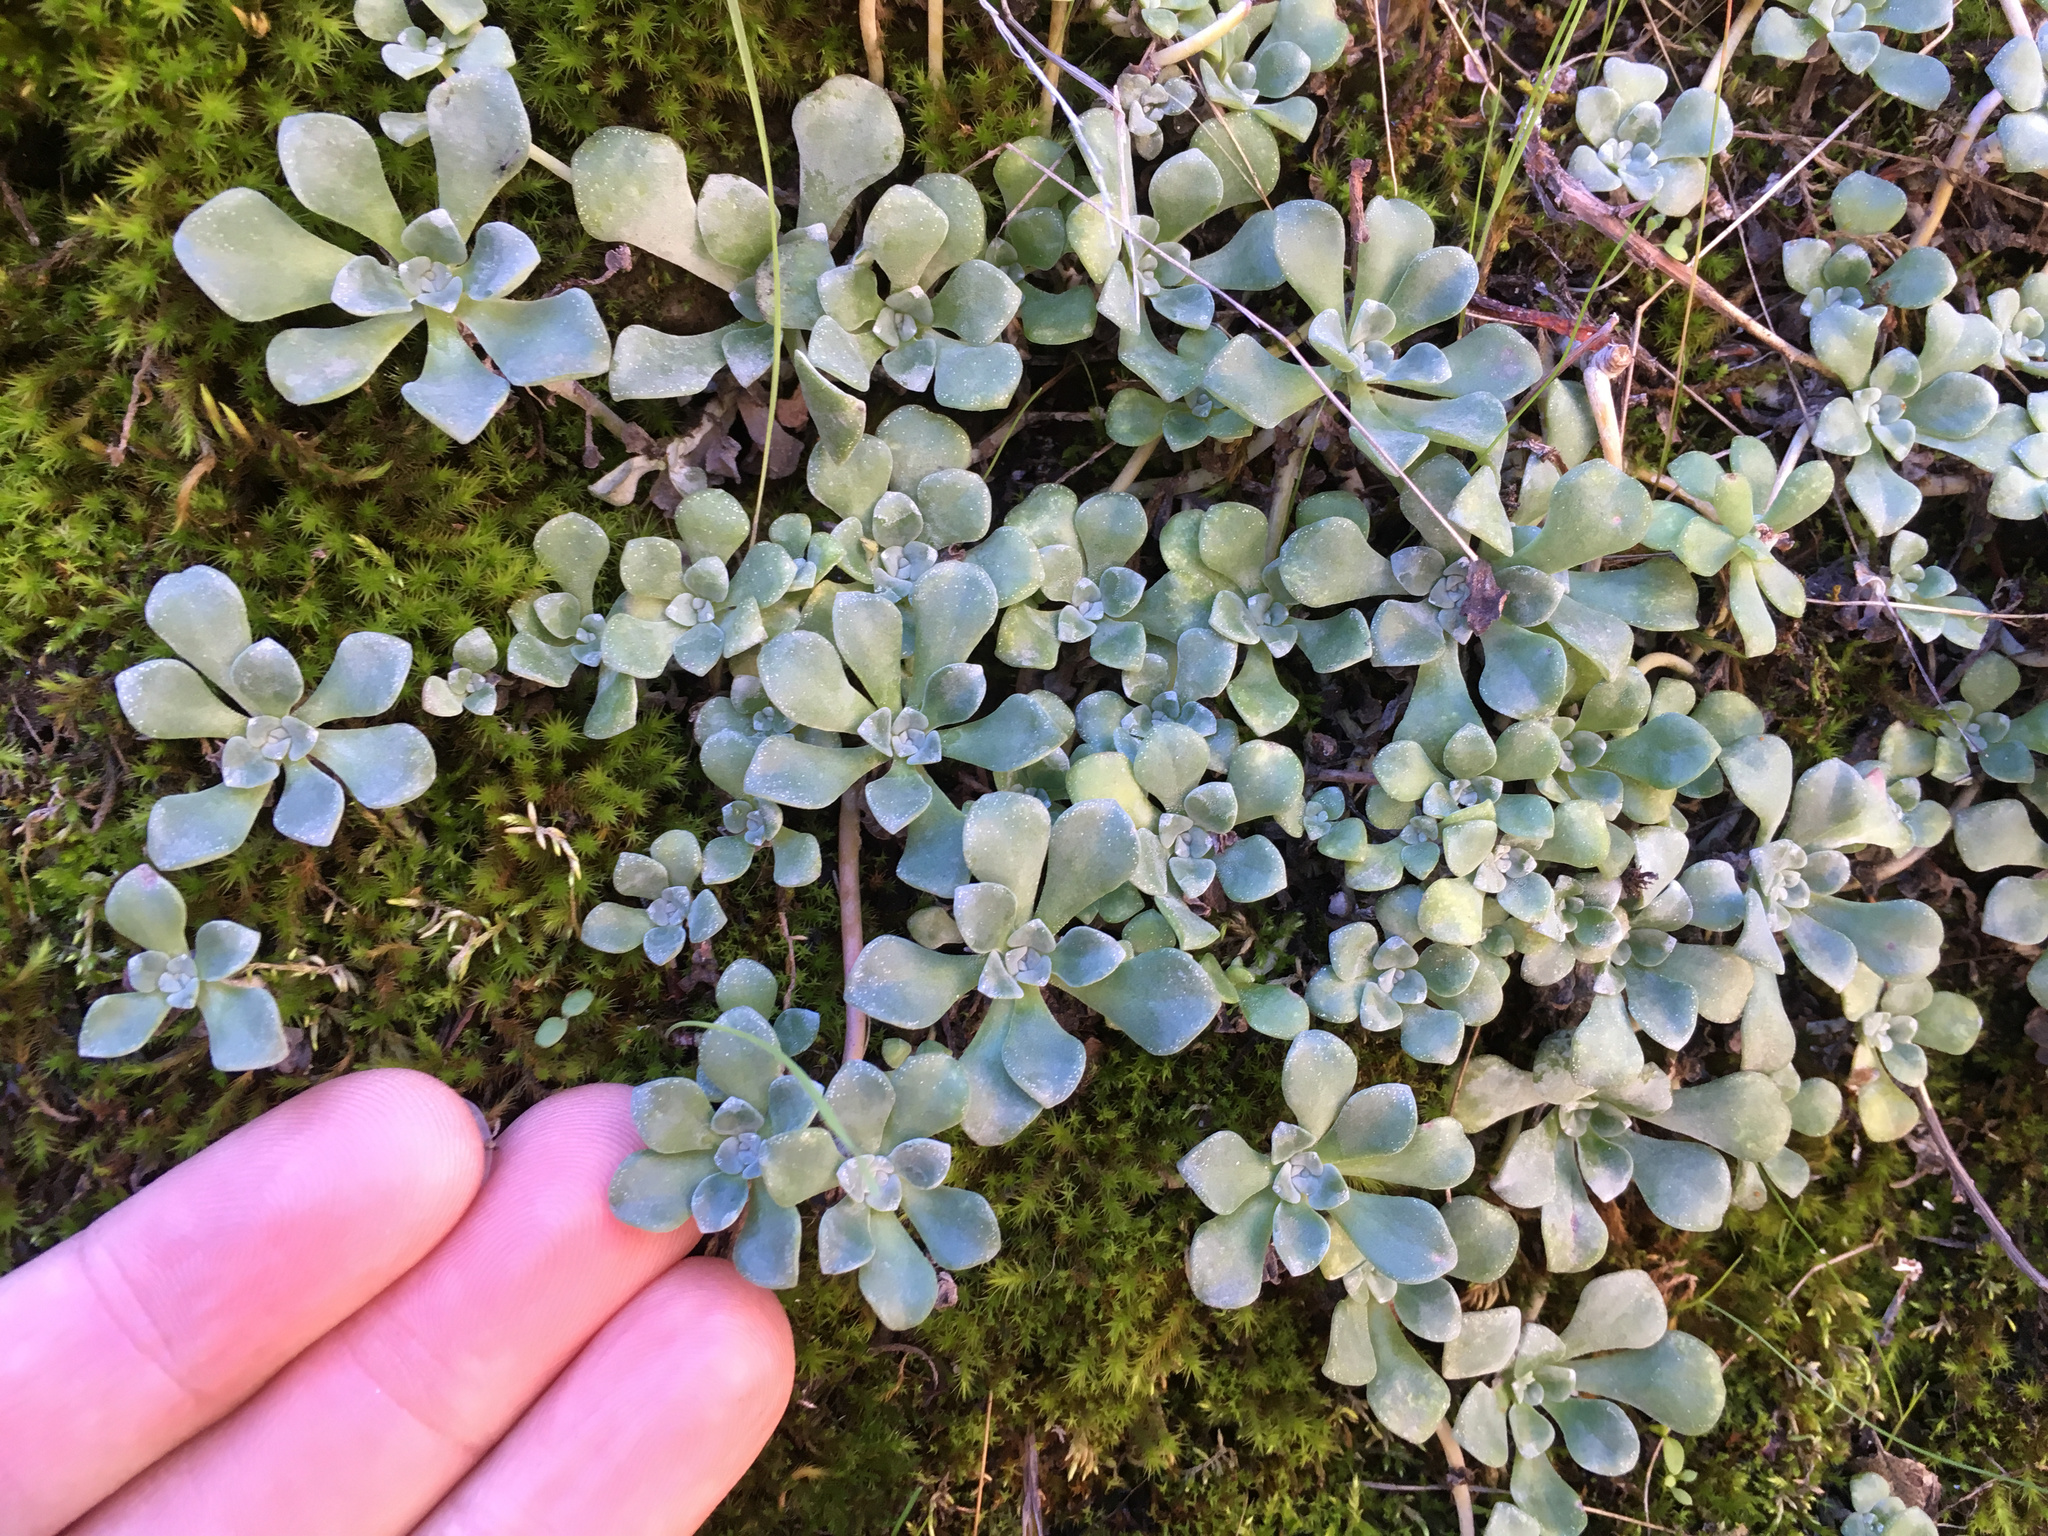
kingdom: Plantae
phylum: Tracheophyta
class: Magnoliopsida
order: Saxifragales
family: Crassulaceae
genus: Sedum
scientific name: Sedum spathulifolium
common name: Colorado stonecrop
